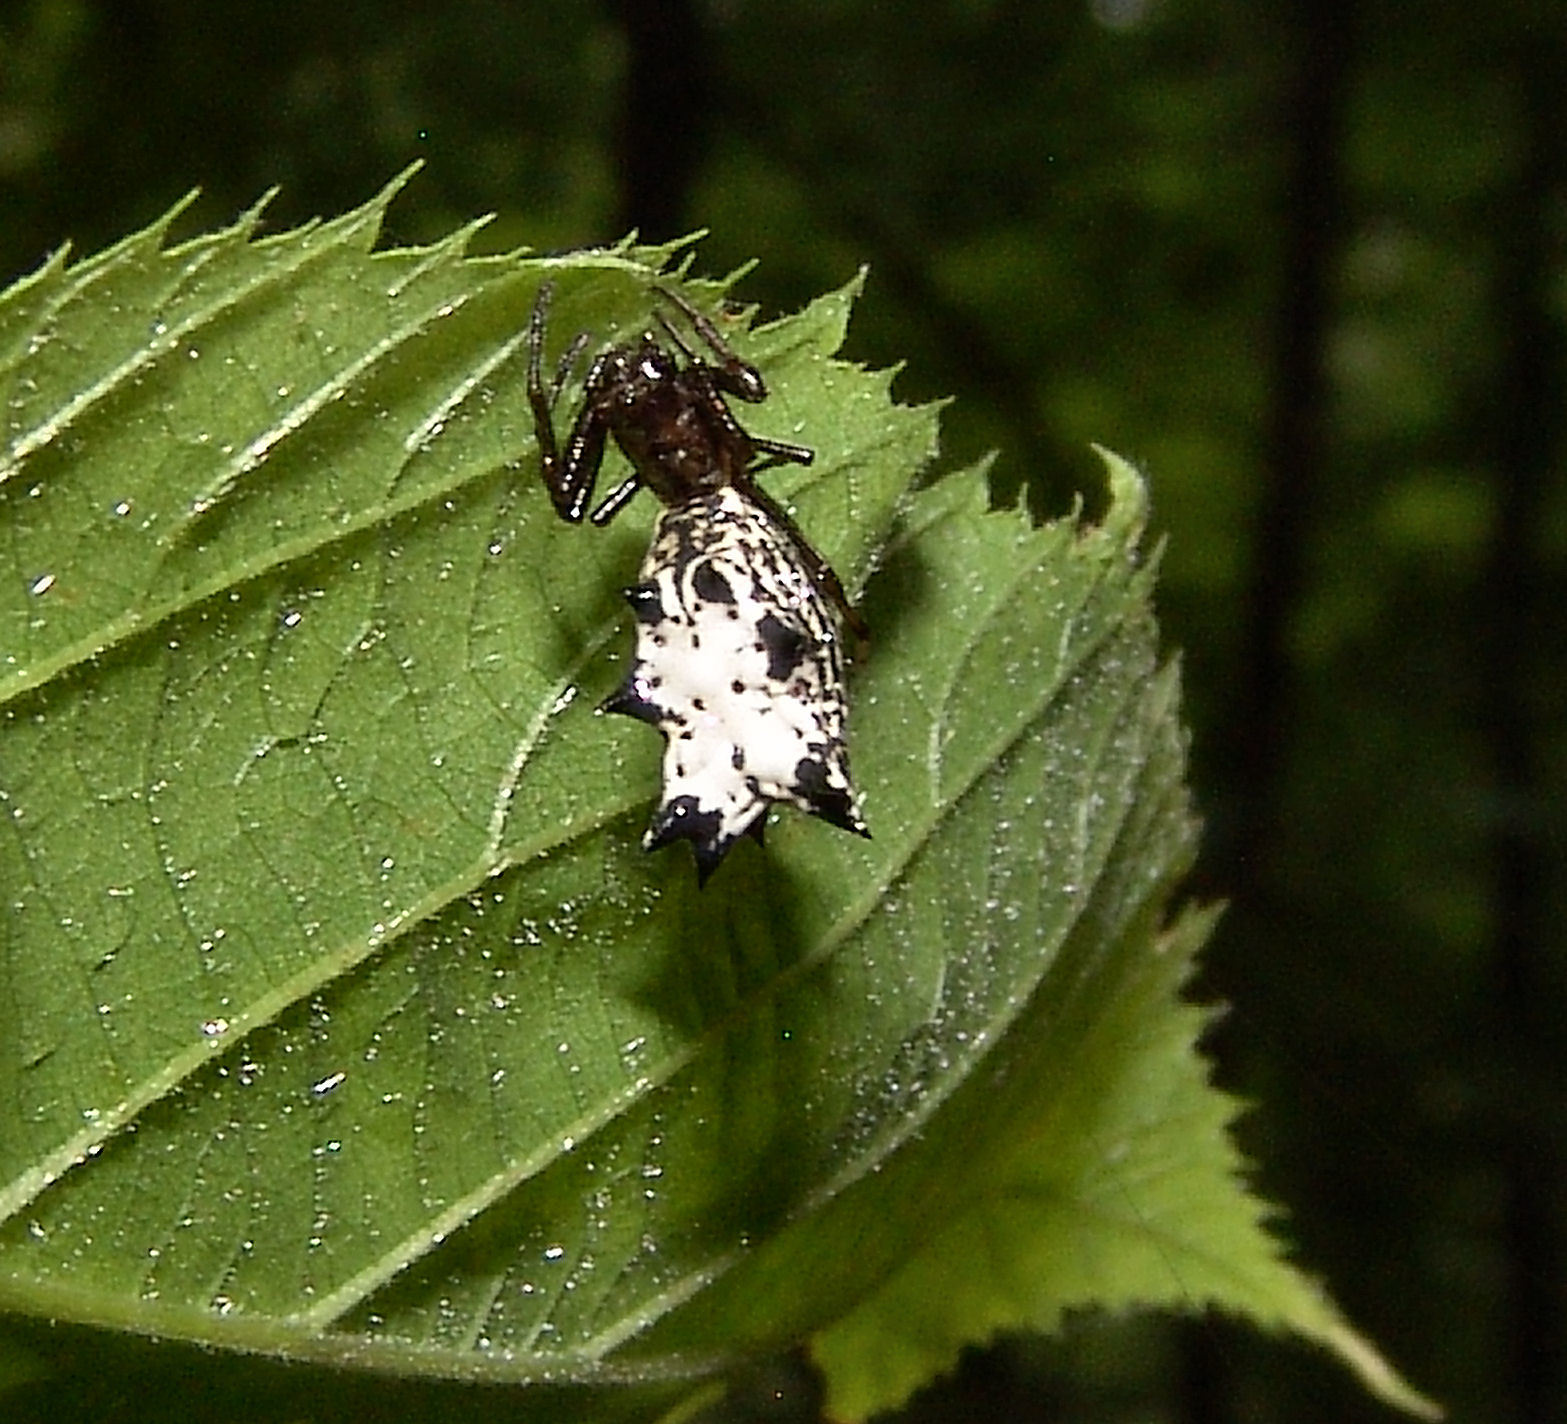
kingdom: Animalia
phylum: Arthropoda
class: Arachnida
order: Araneae
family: Araneidae
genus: Micrathena
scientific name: Micrathena gracilis
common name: Orb weavers
